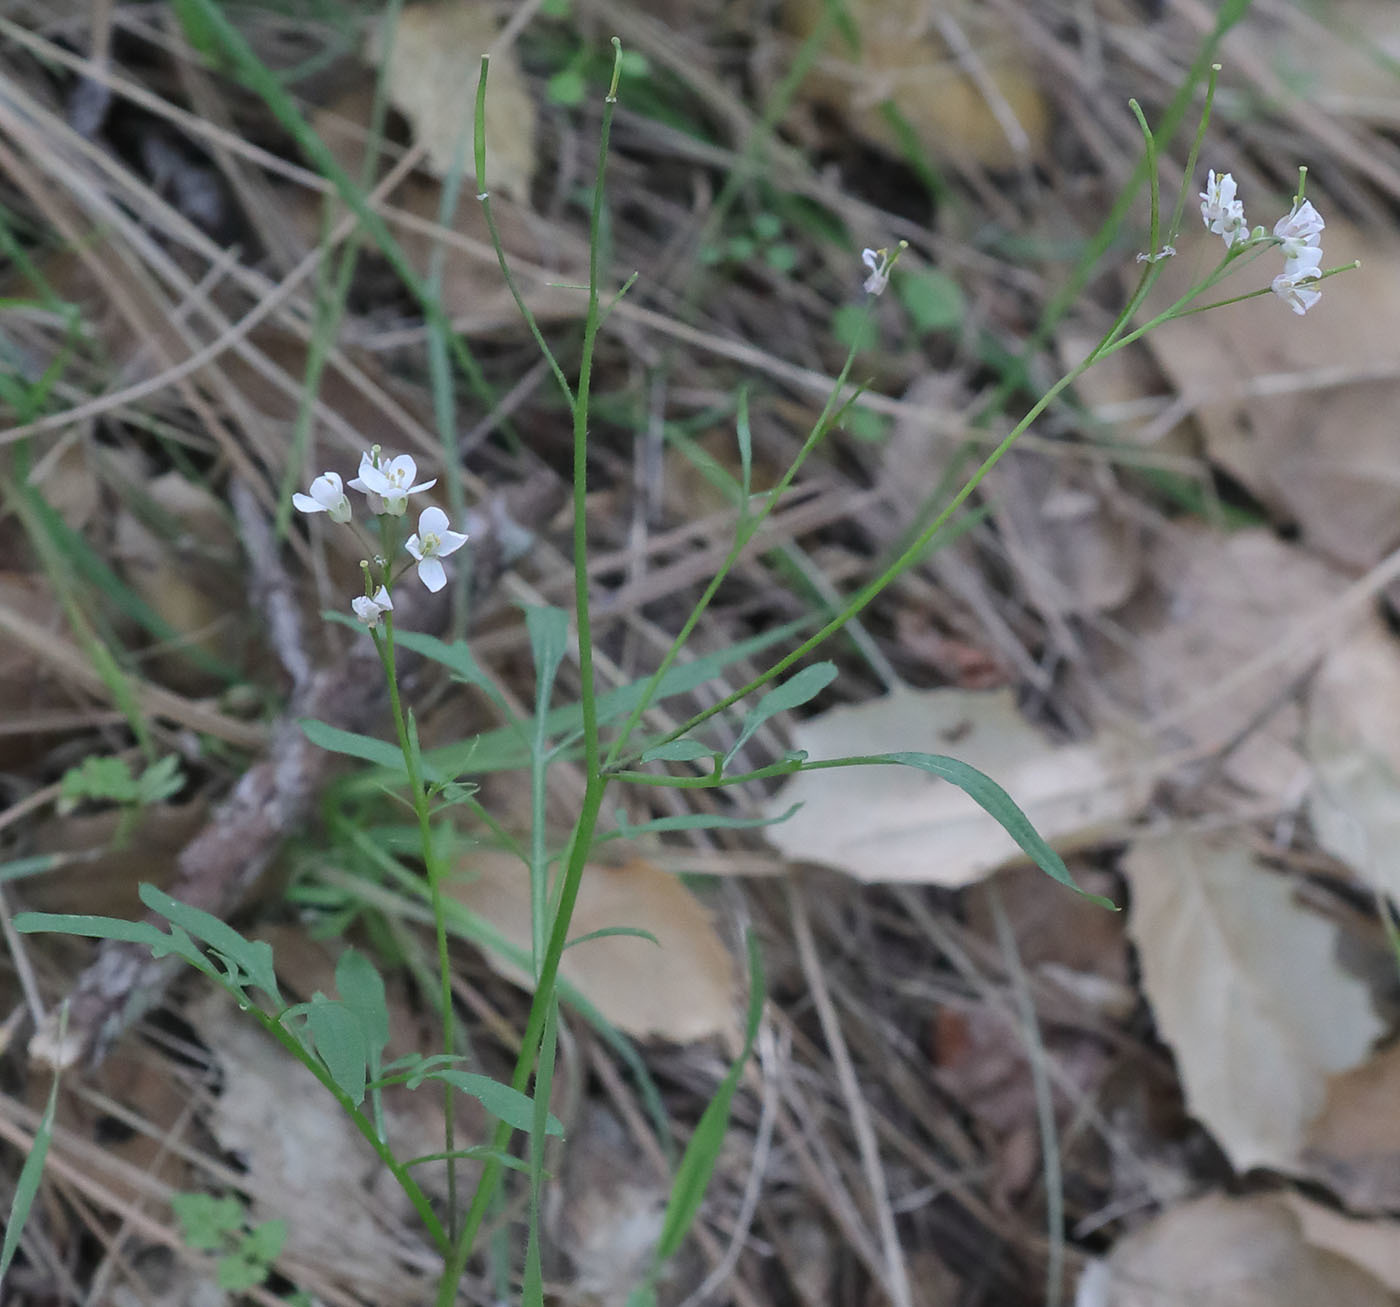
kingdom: Plantae
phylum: Tracheophyta
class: Magnoliopsida
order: Brassicales
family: Brassicaceae
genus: Cardamine
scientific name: Cardamine californica
